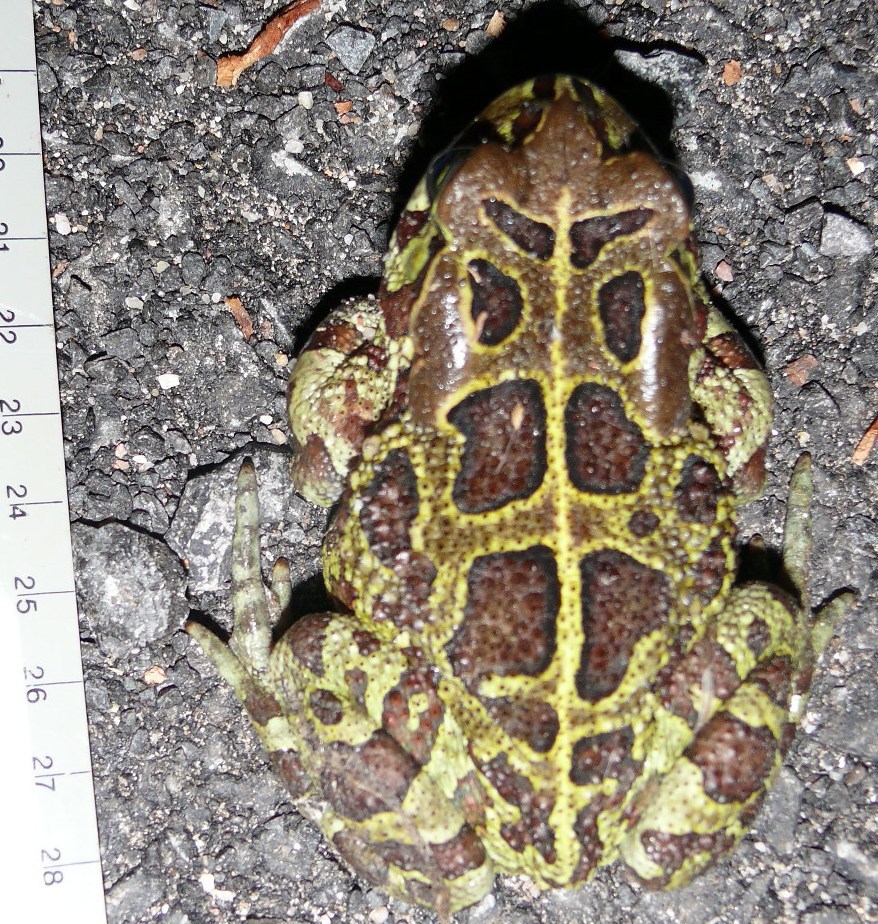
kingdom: Animalia
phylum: Chordata
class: Amphibia
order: Anura
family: Bufonidae
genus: Sclerophrys
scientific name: Sclerophrys pantherina
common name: Panther toad
